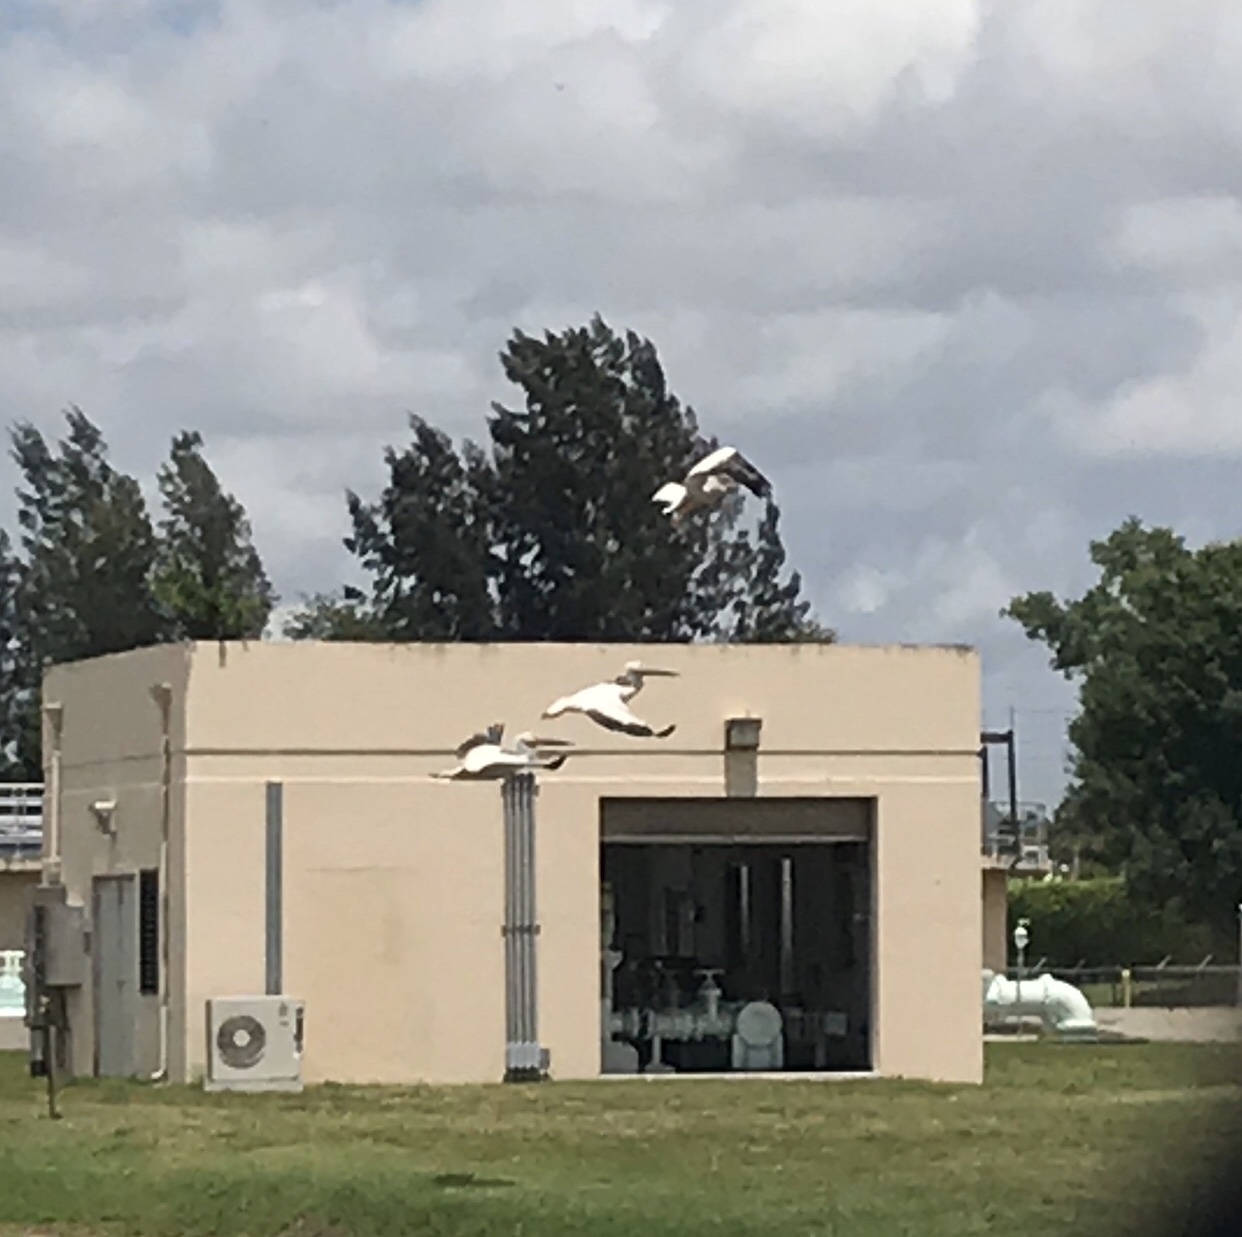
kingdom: Animalia
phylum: Chordata
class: Aves
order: Pelecaniformes
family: Pelecanidae
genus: Pelecanus
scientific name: Pelecanus erythrorhynchos
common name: American white pelican
